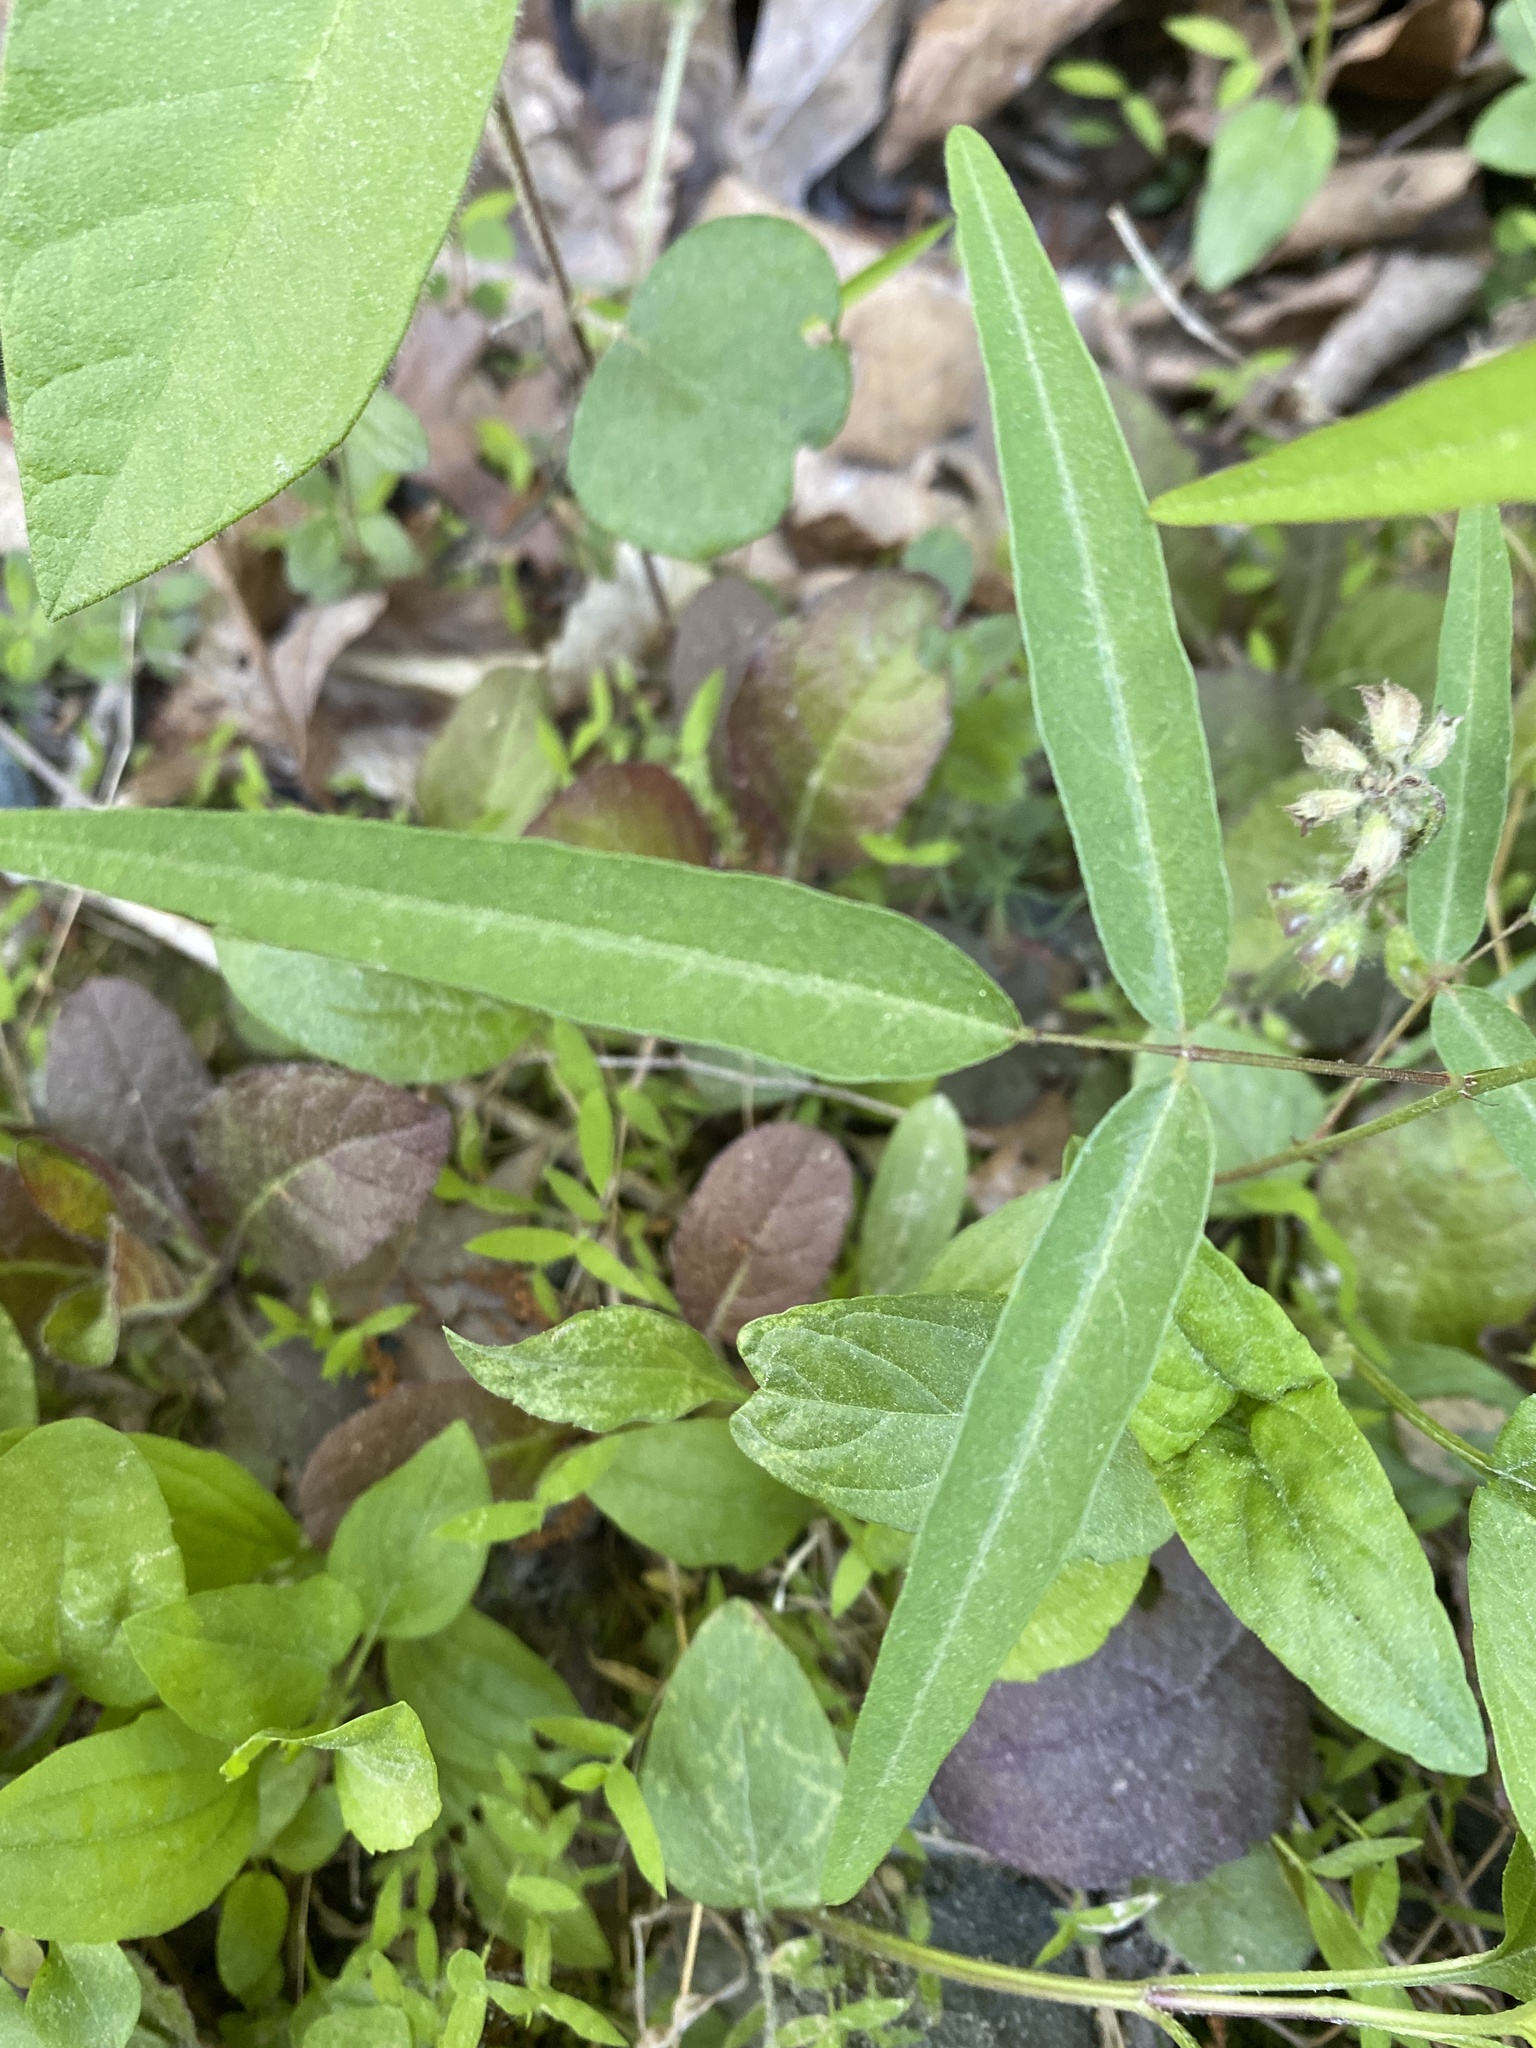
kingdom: Plantae
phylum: Tracheophyta
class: Magnoliopsida
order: Fabales
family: Fabaceae
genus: Desmodium
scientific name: Desmodium paniculatum
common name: Panicled tick-clover
